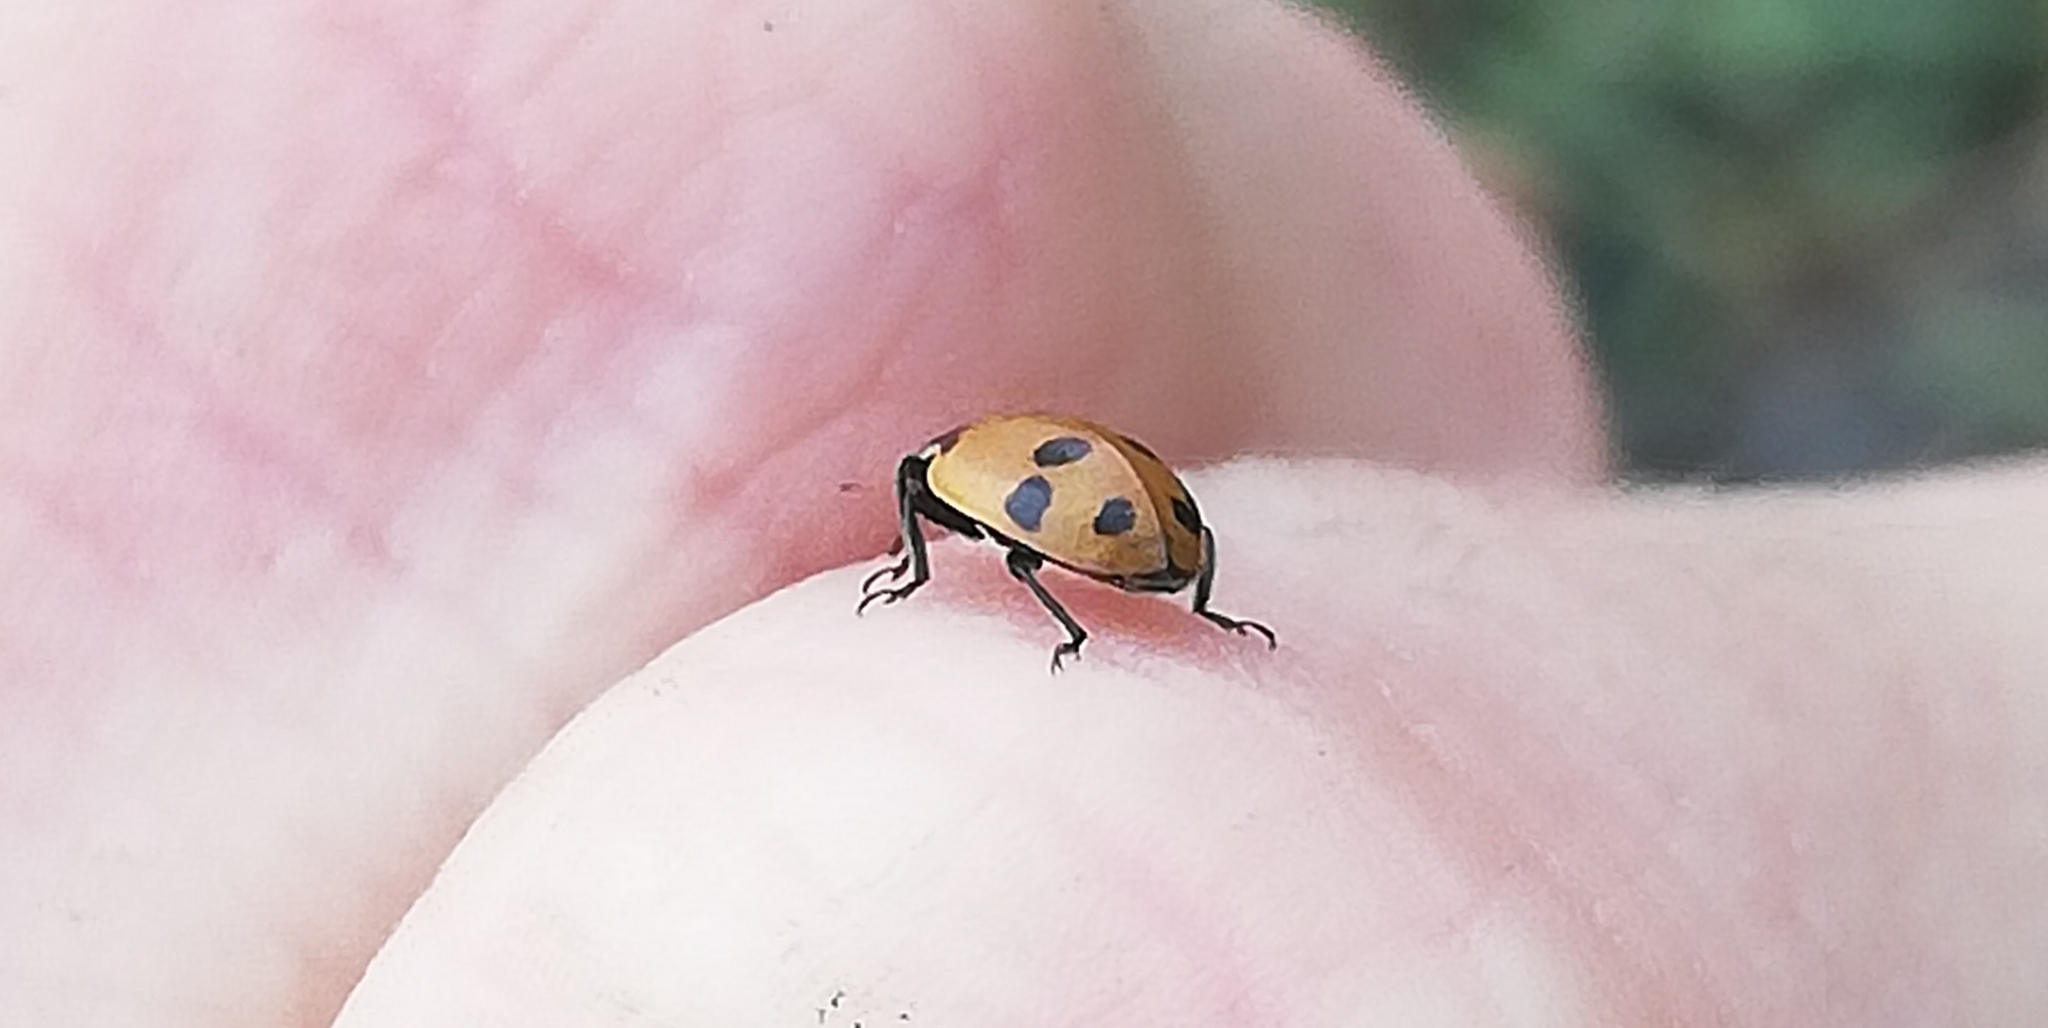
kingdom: Animalia
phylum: Arthropoda
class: Insecta
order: Coleoptera
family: Coccinellidae
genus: Hippodamia
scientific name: Hippodamia variegata
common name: Ladybird beetle
